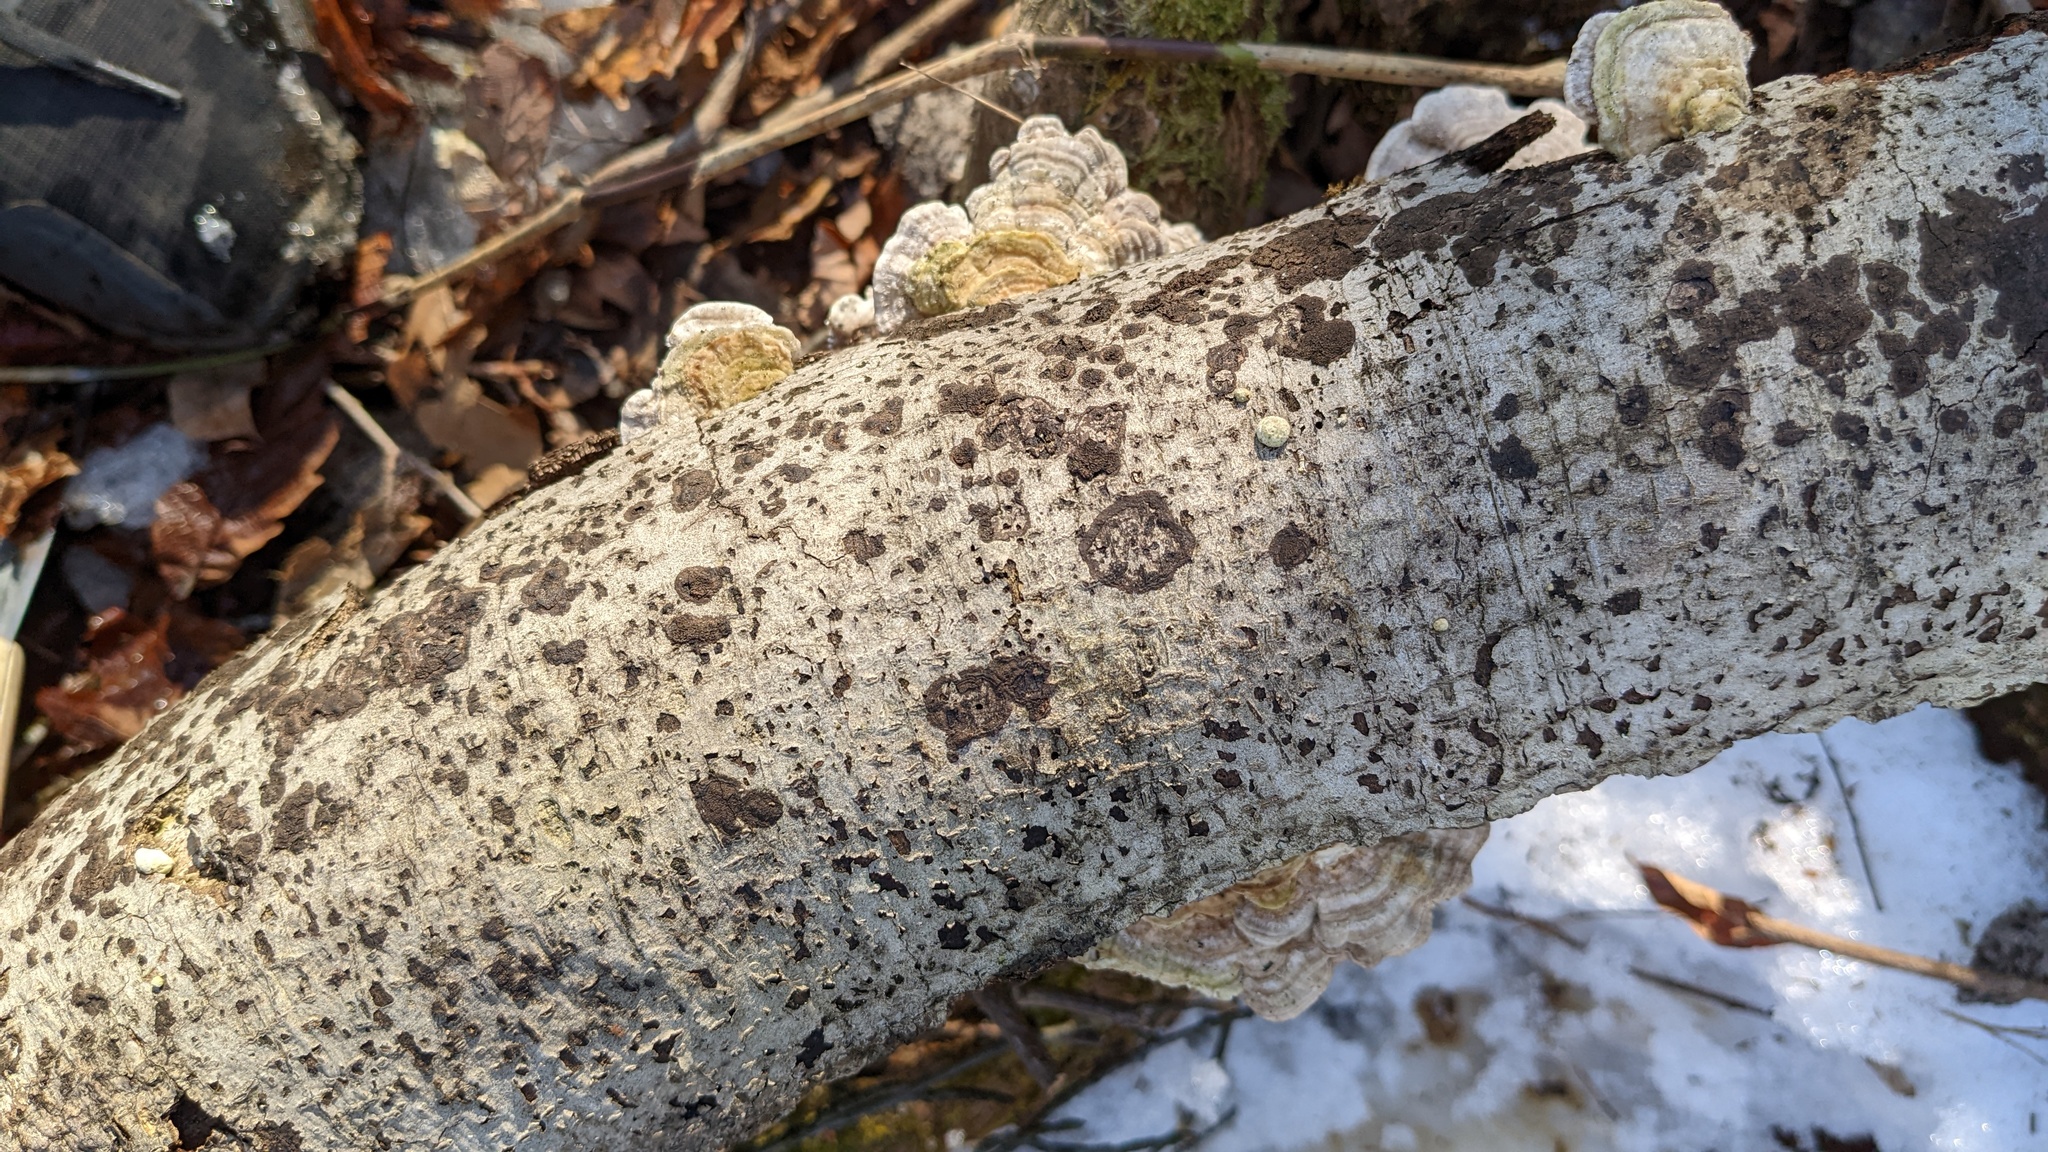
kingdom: Fungi
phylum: Basidiomycota
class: Agaricomycetes
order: Polyporales
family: Polyporaceae
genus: Lenzites
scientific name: Lenzites betulinus
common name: Birch mazegill
